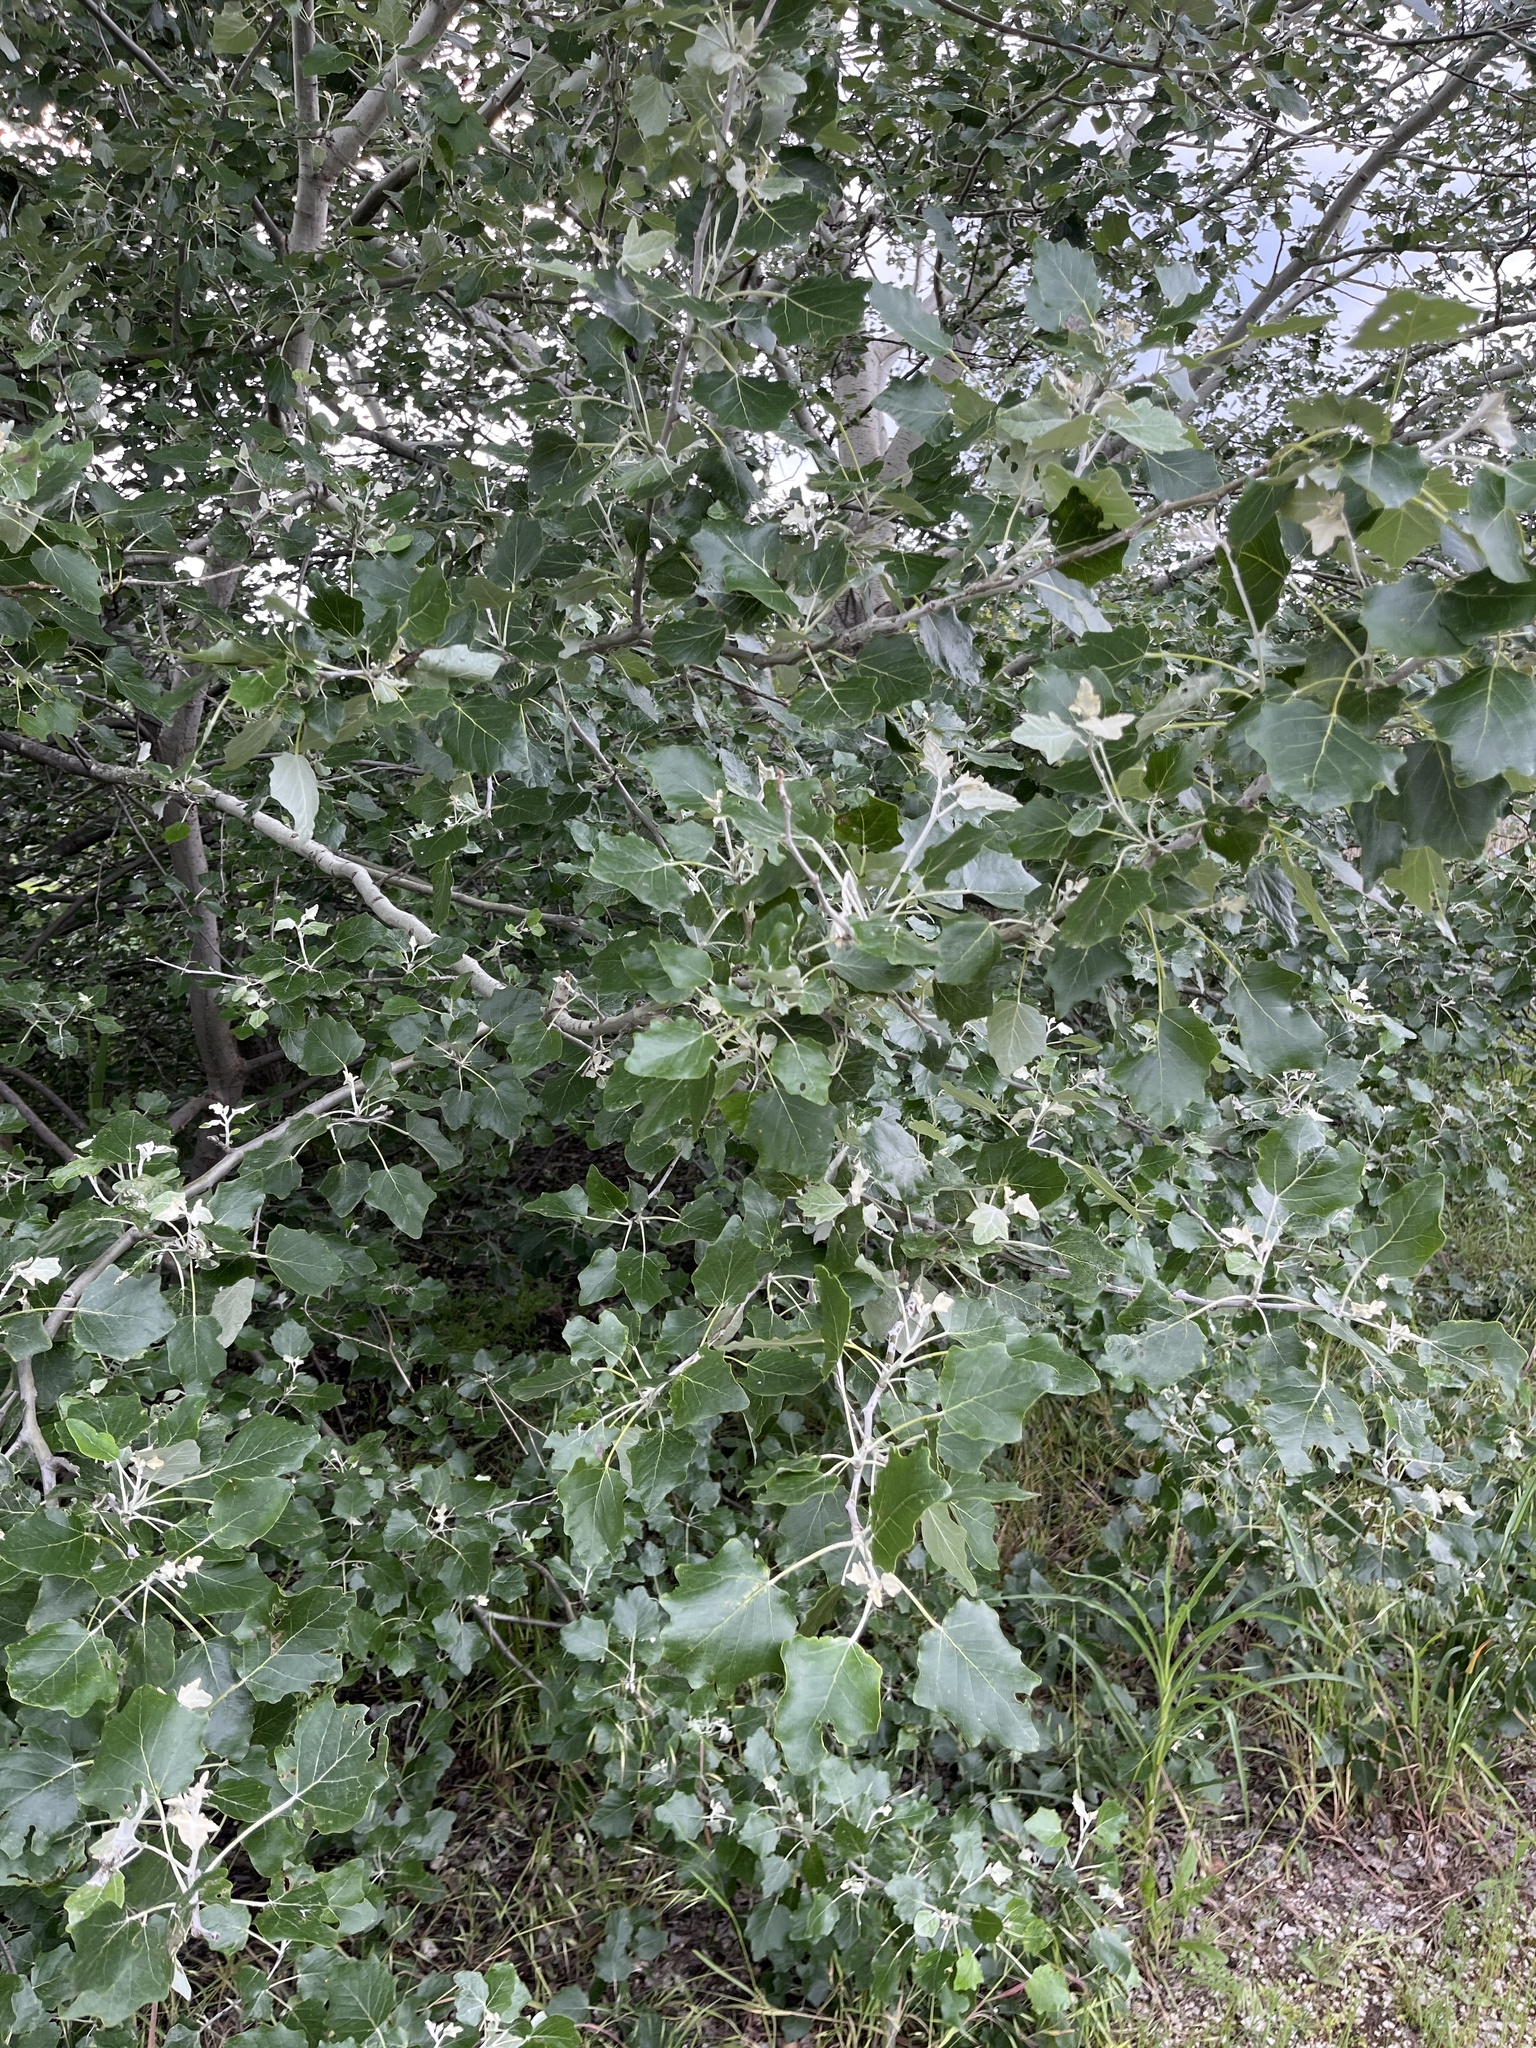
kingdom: Plantae
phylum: Tracheophyta
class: Magnoliopsida
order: Malpighiales
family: Salicaceae
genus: Populus
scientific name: Populus alba
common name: White poplar
